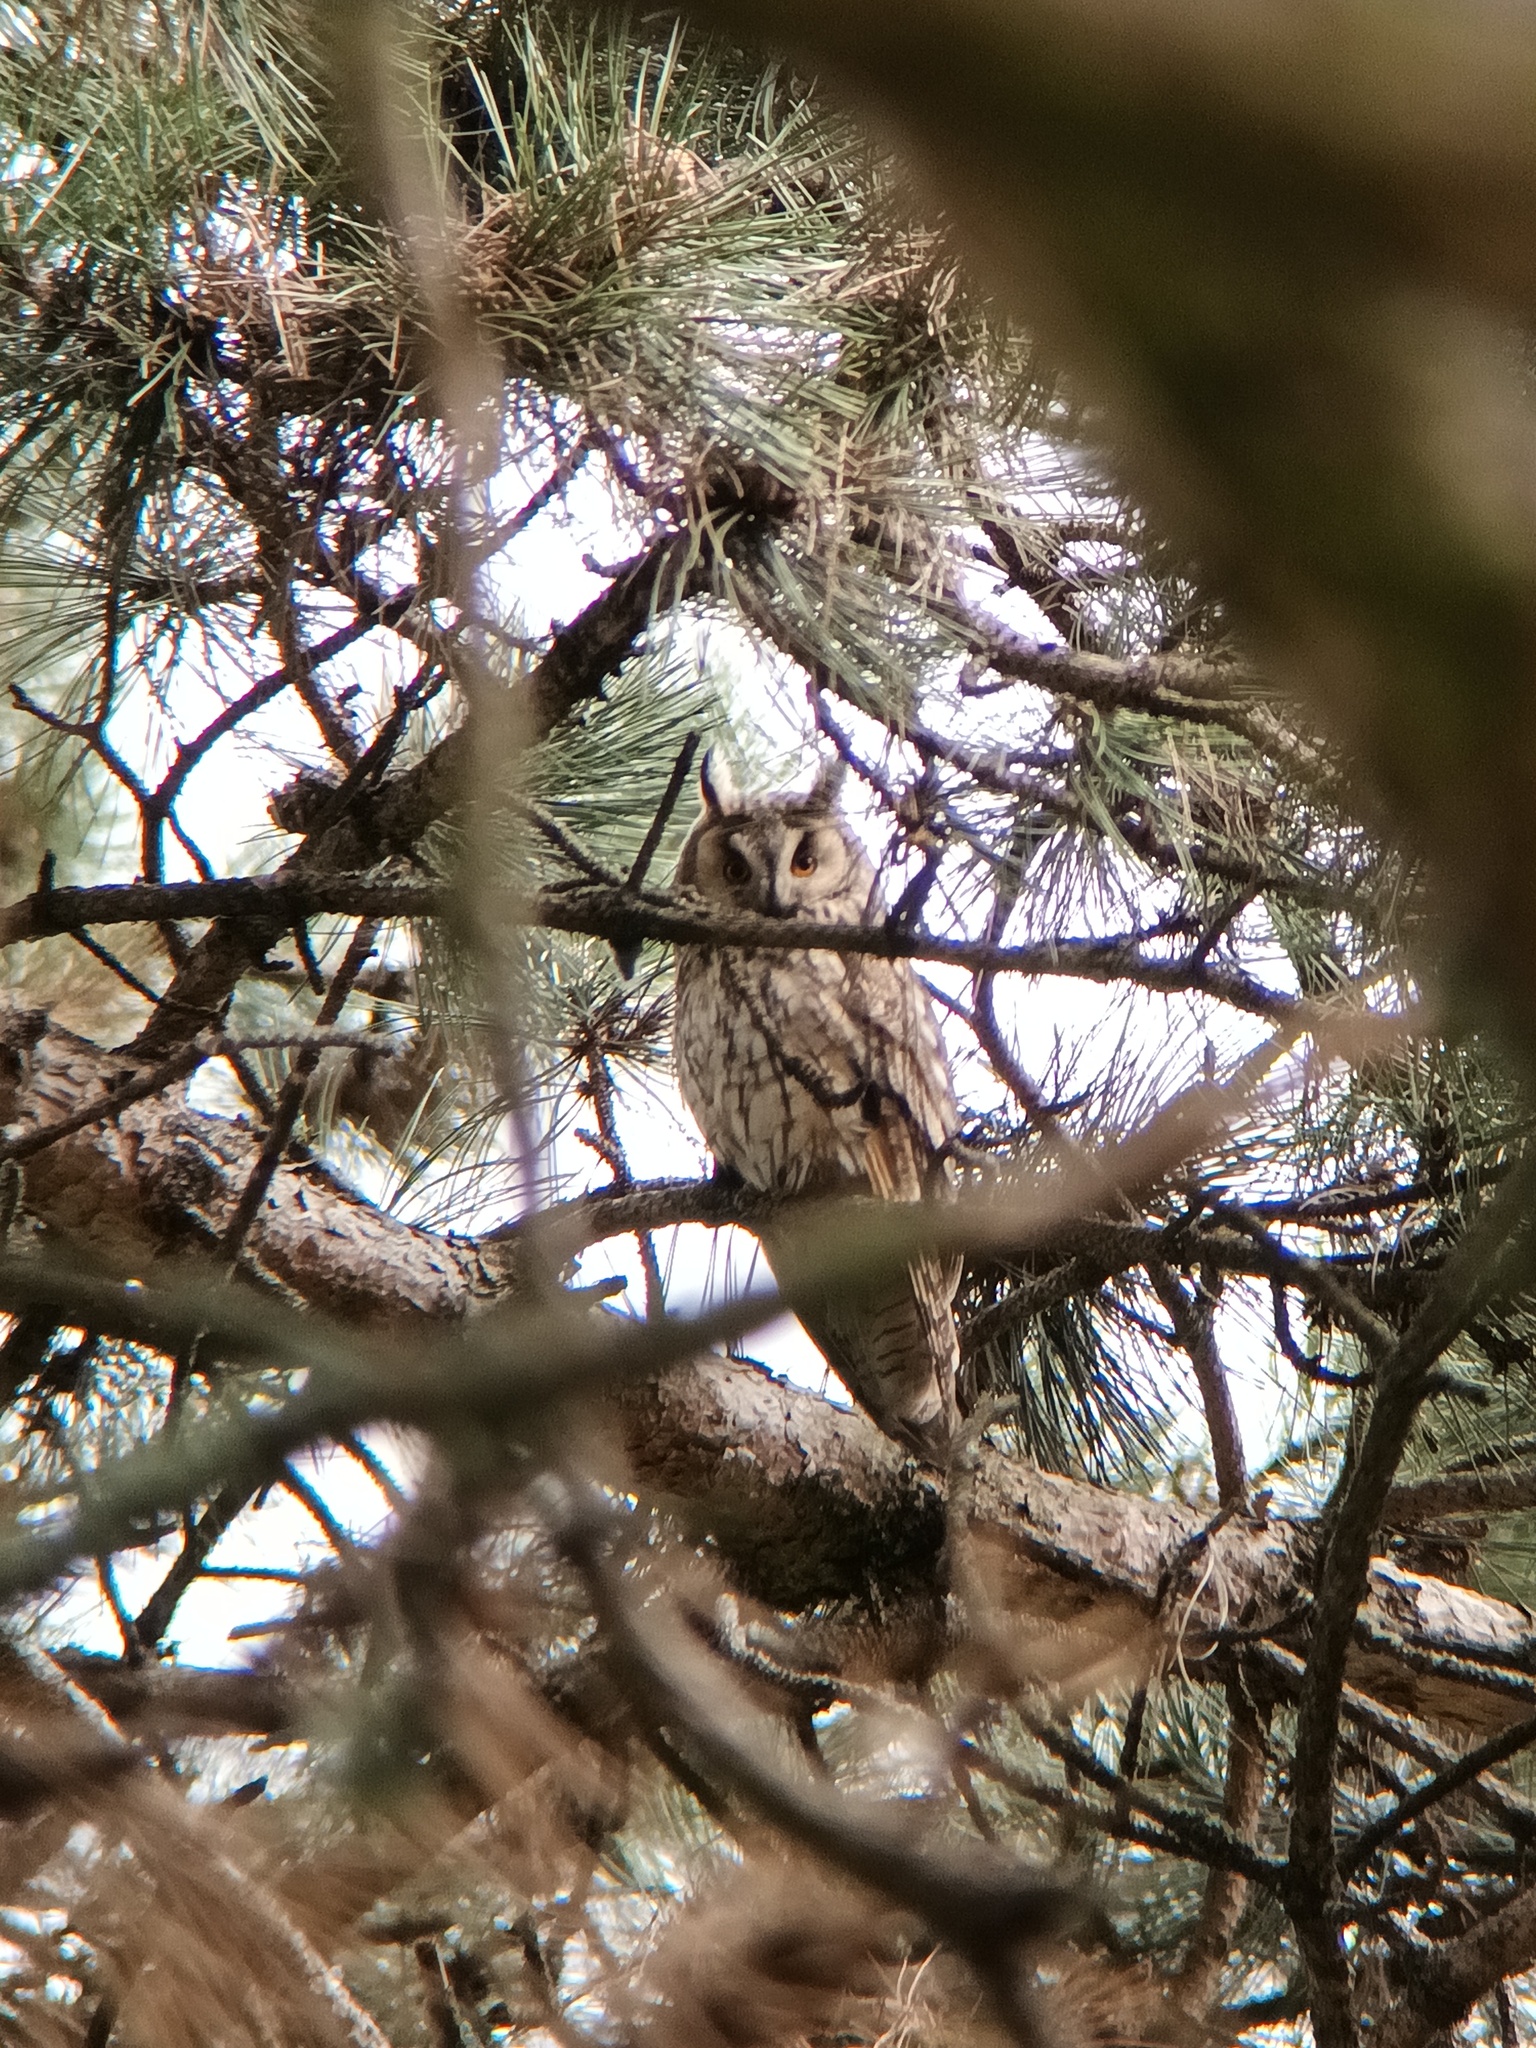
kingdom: Animalia
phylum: Chordata
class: Aves
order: Strigiformes
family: Strigidae
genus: Asio
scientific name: Asio otus
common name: Long-eared owl
